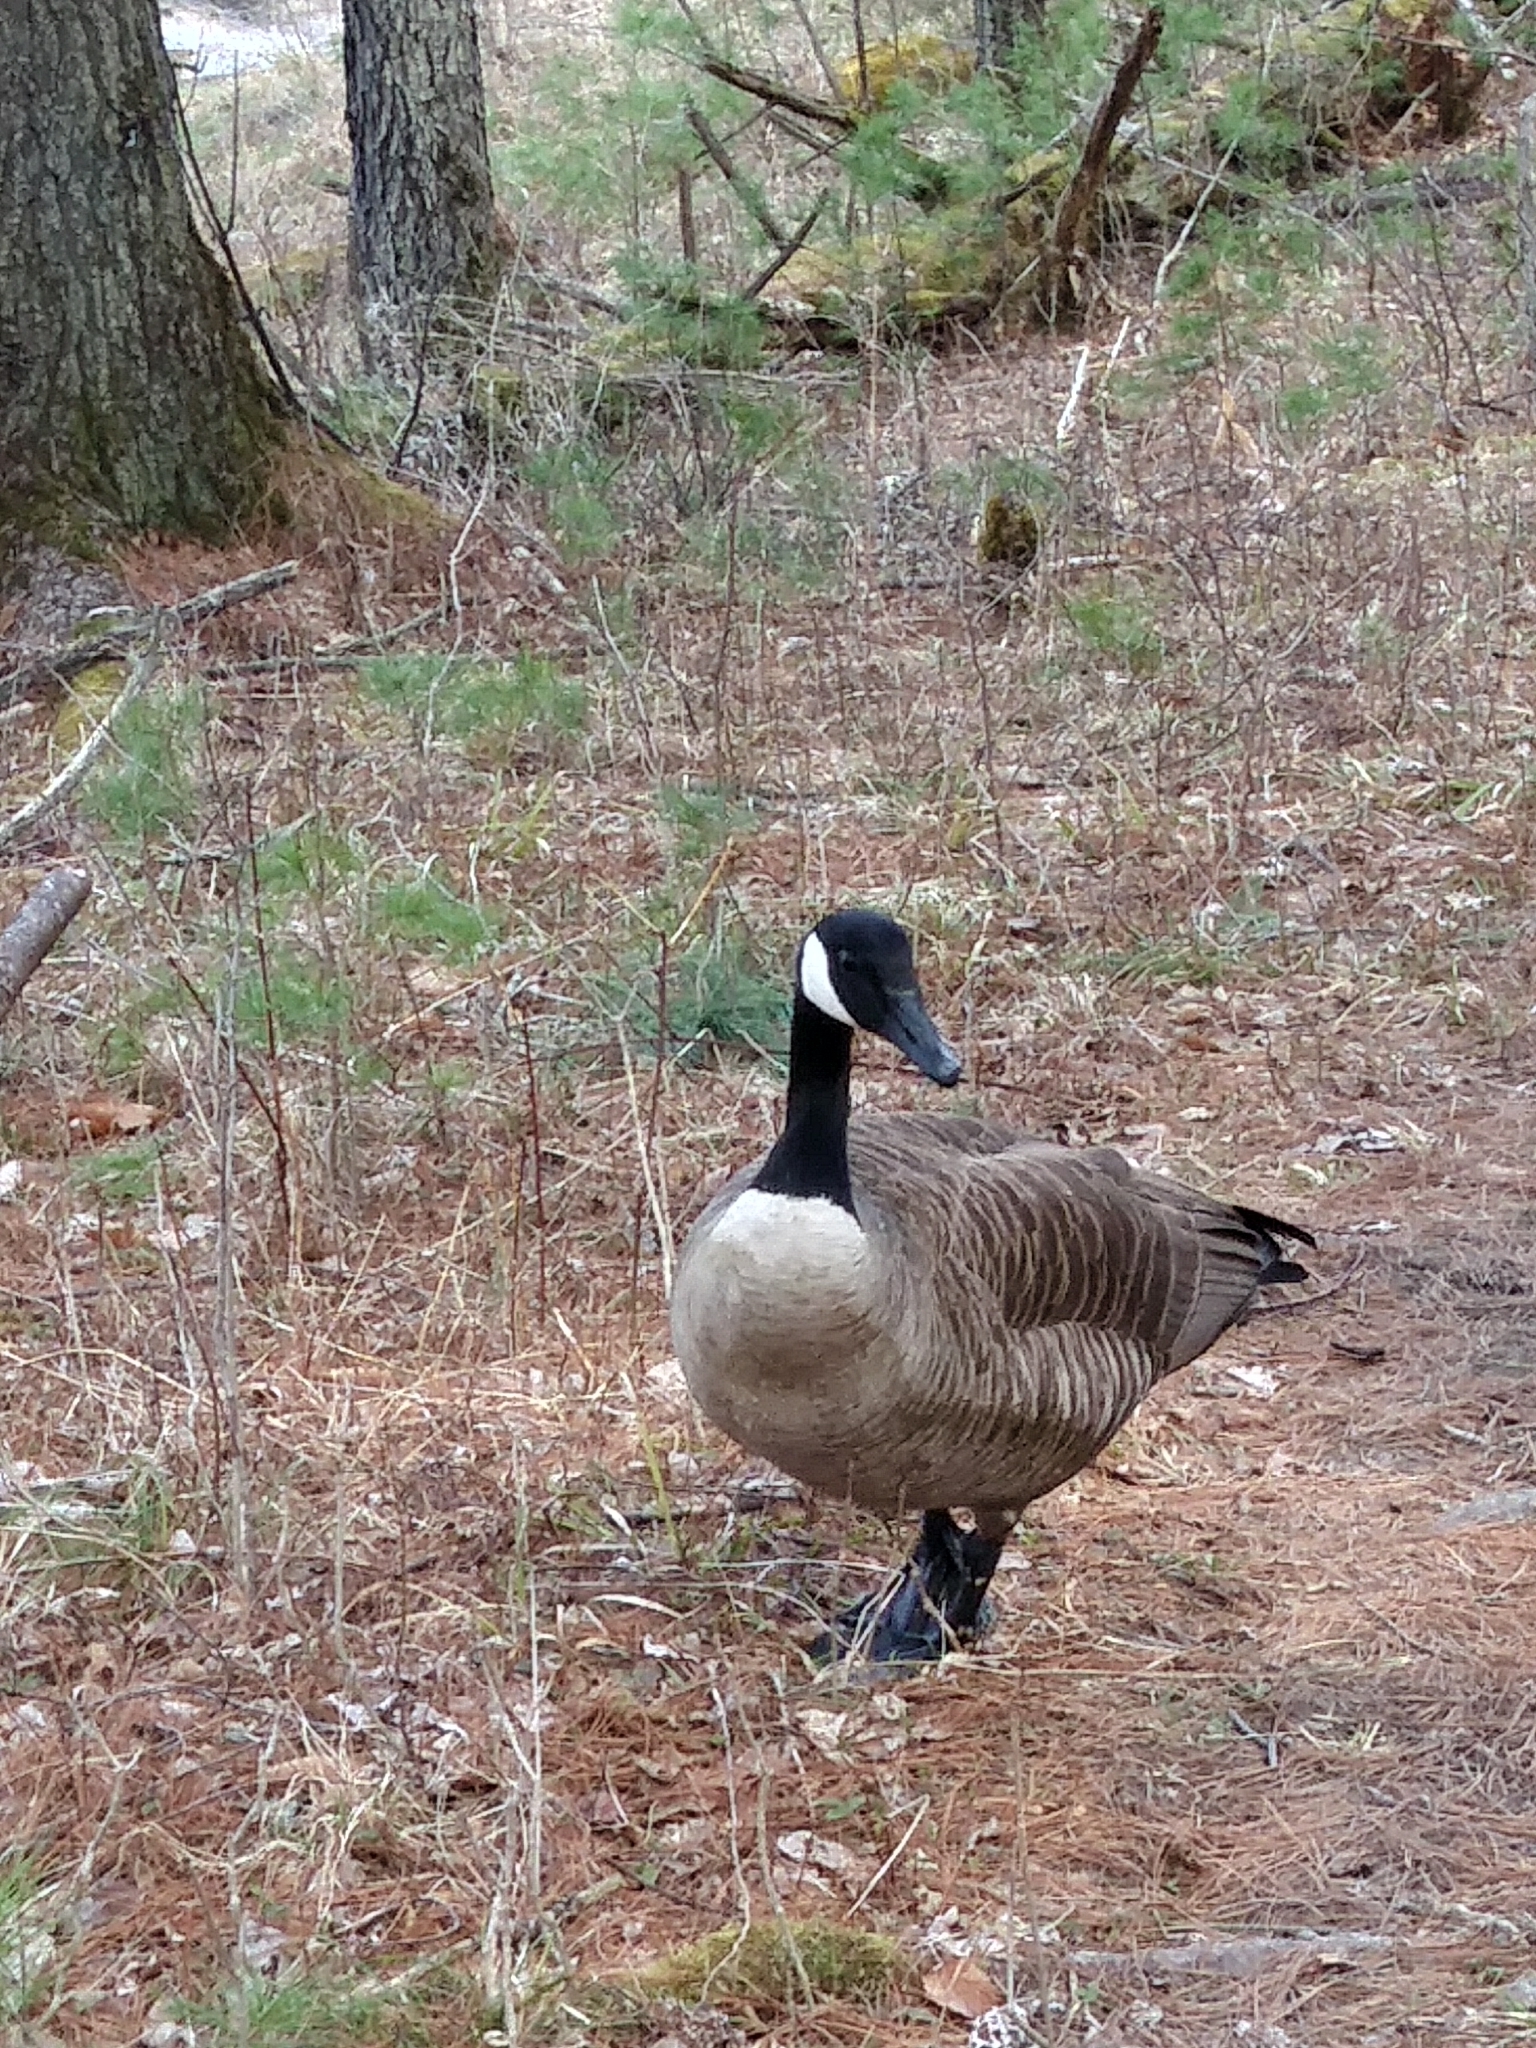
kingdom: Animalia
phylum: Chordata
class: Aves
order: Anseriformes
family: Anatidae
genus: Branta
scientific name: Branta canadensis
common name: Canada goose
